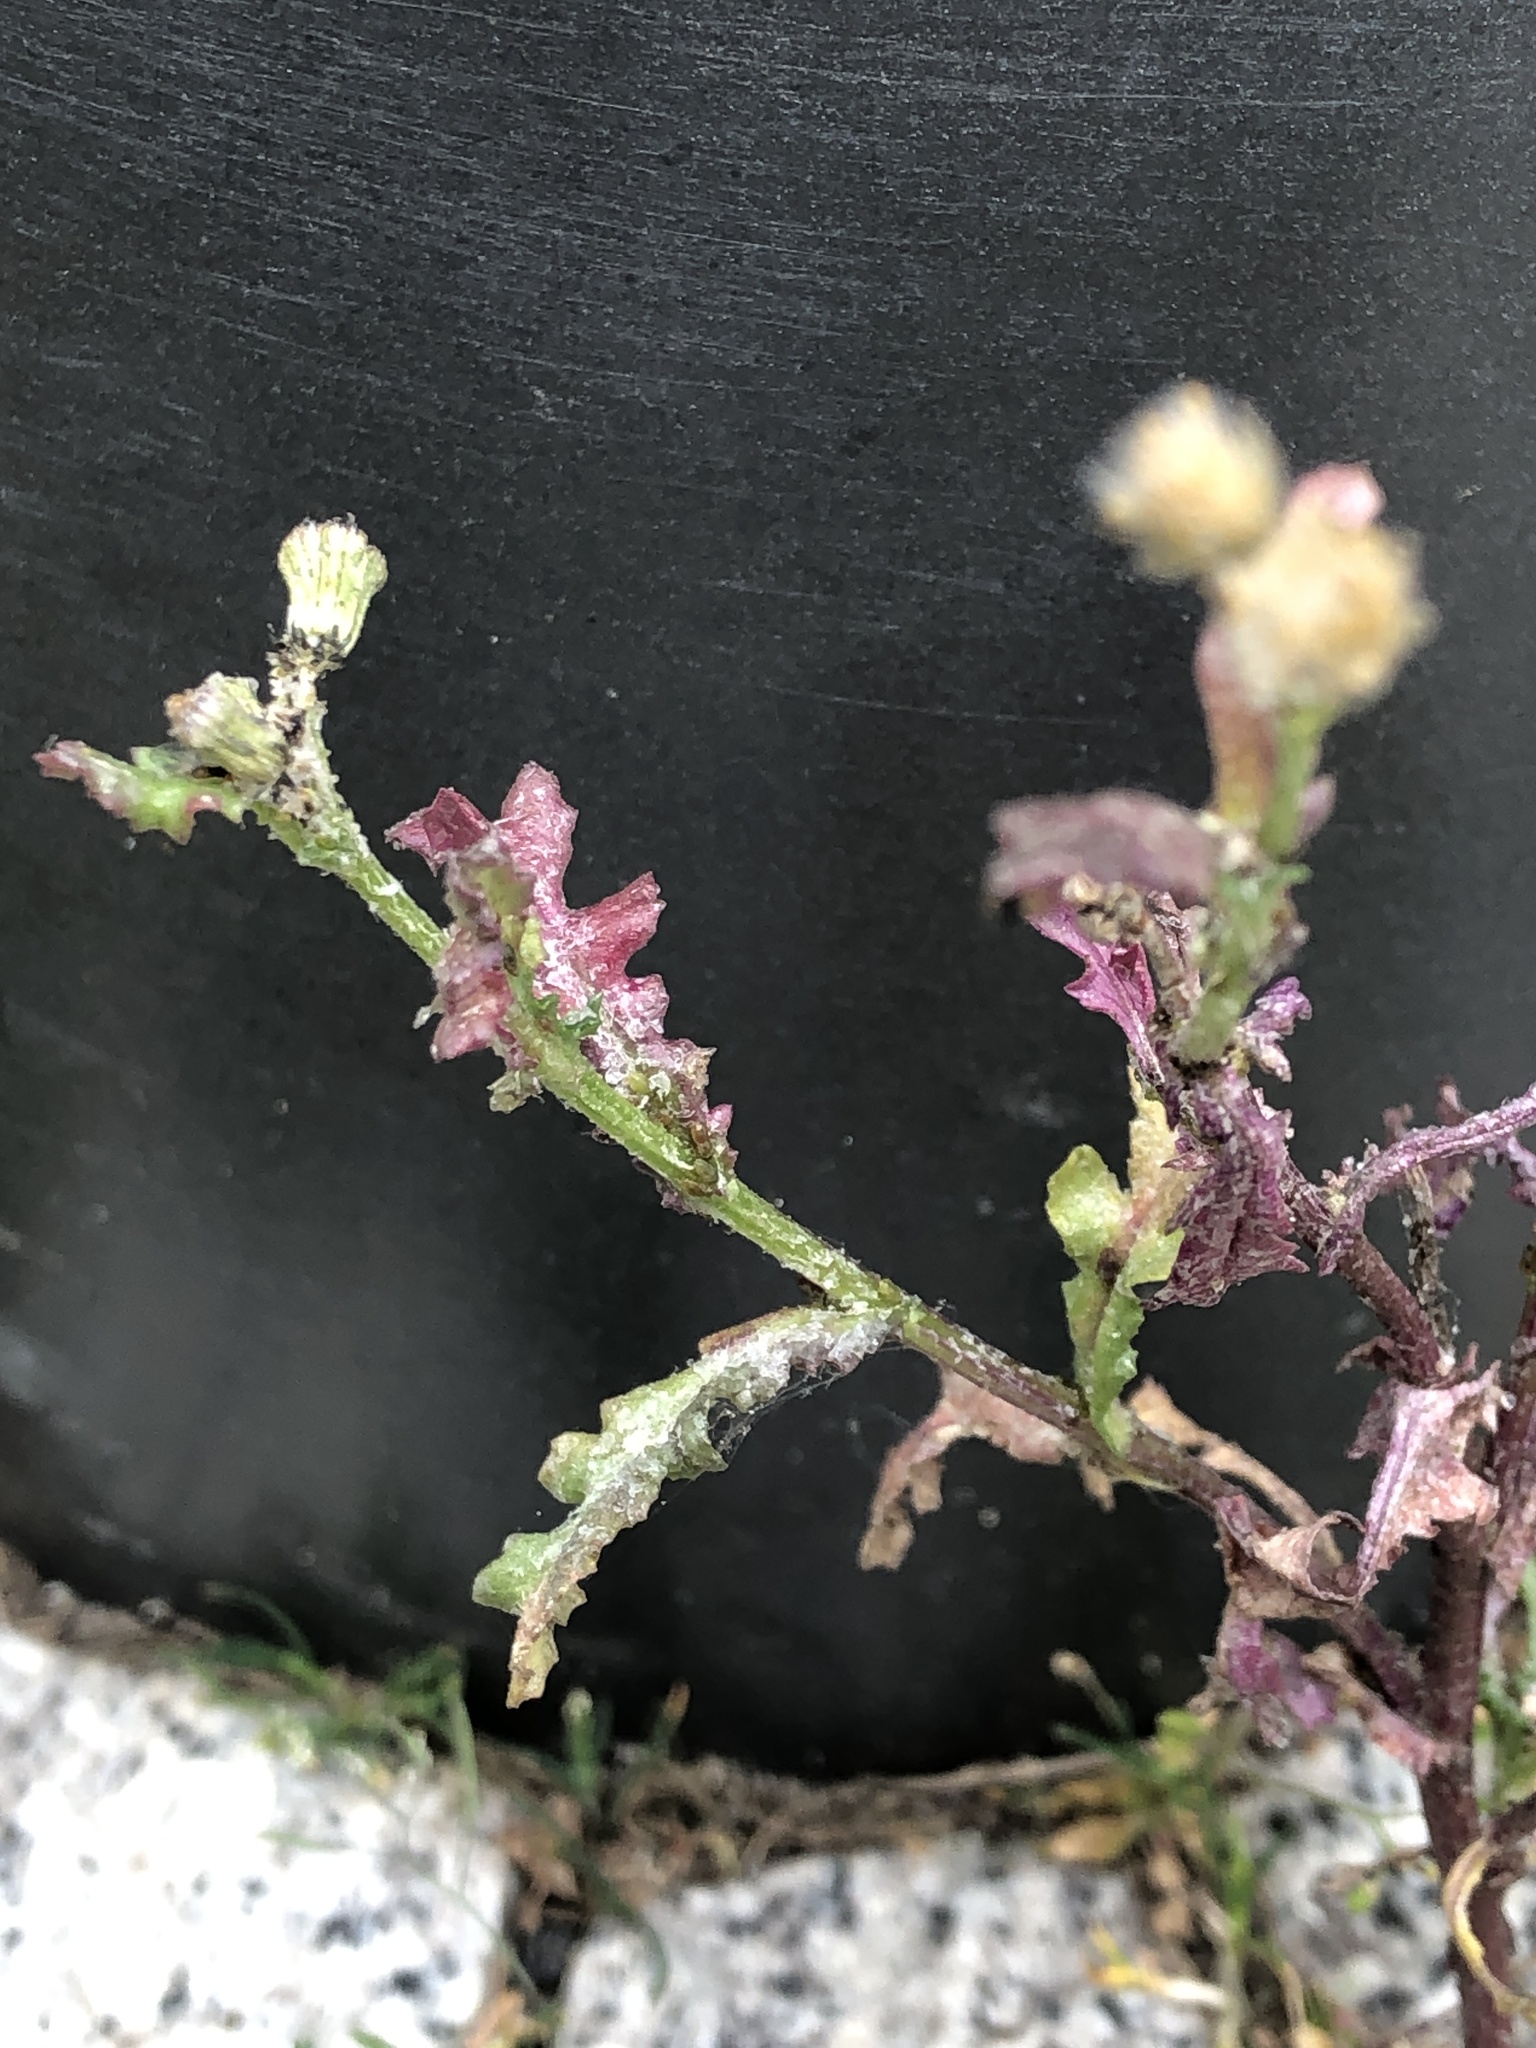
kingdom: Plantae
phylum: Tracheophyta
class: Magnoliopsida
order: Asterales
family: Asteraceae
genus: Senecio
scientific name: Senecio vulgaris
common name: Old-man-in-the-spring
